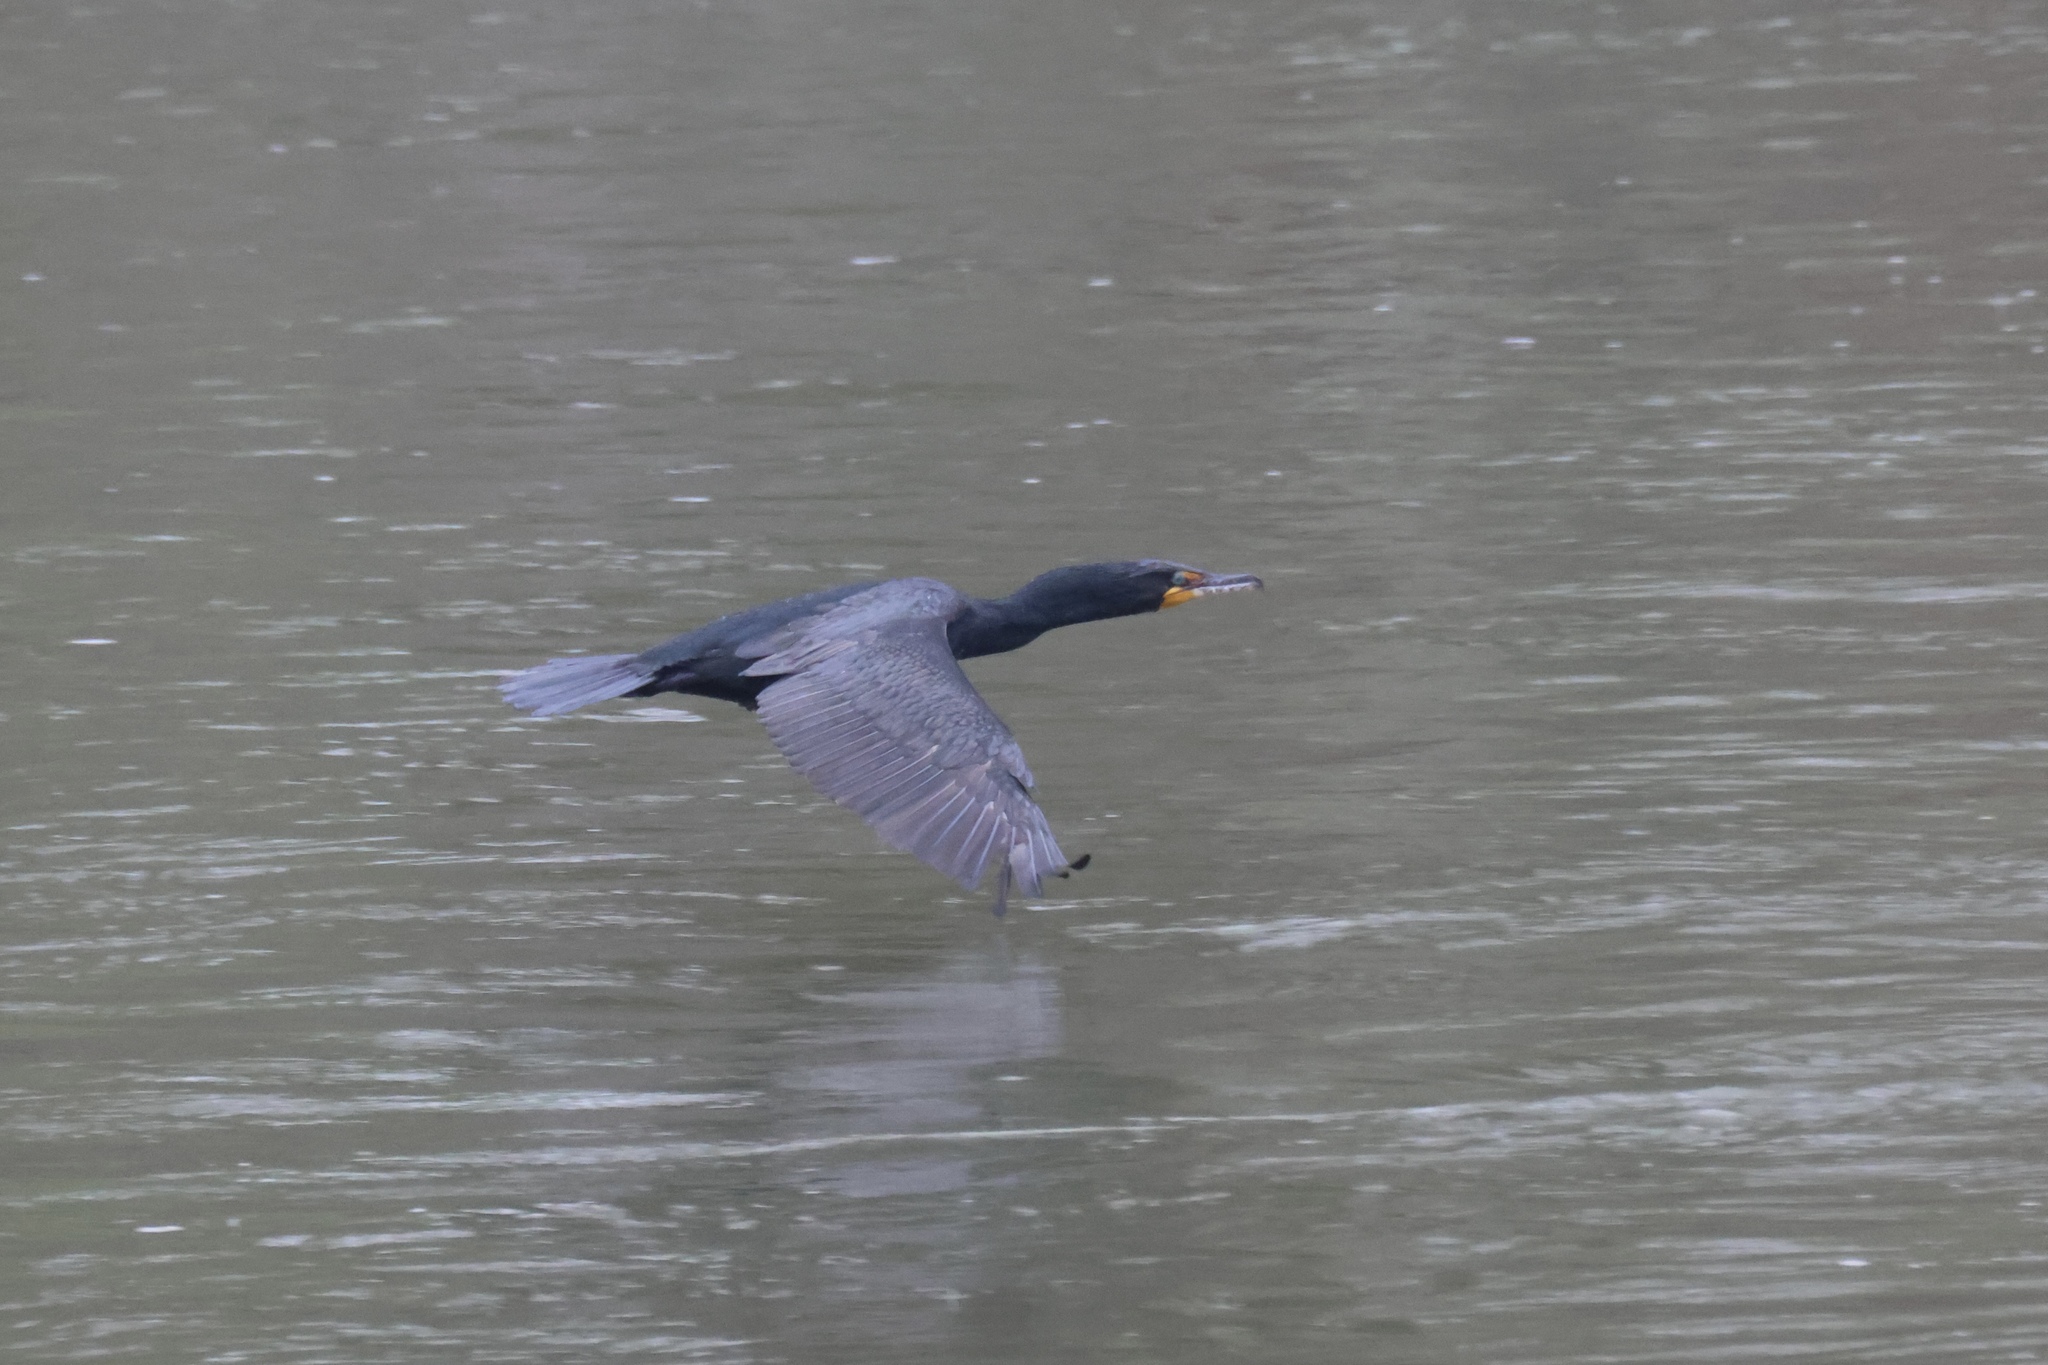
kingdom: Animalia
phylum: Chordata
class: Aves
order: Suliformes
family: Phalacrocoracidae
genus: Phalacrocorax
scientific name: Phalacrocorax auritus
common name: Double-crested cormorant
